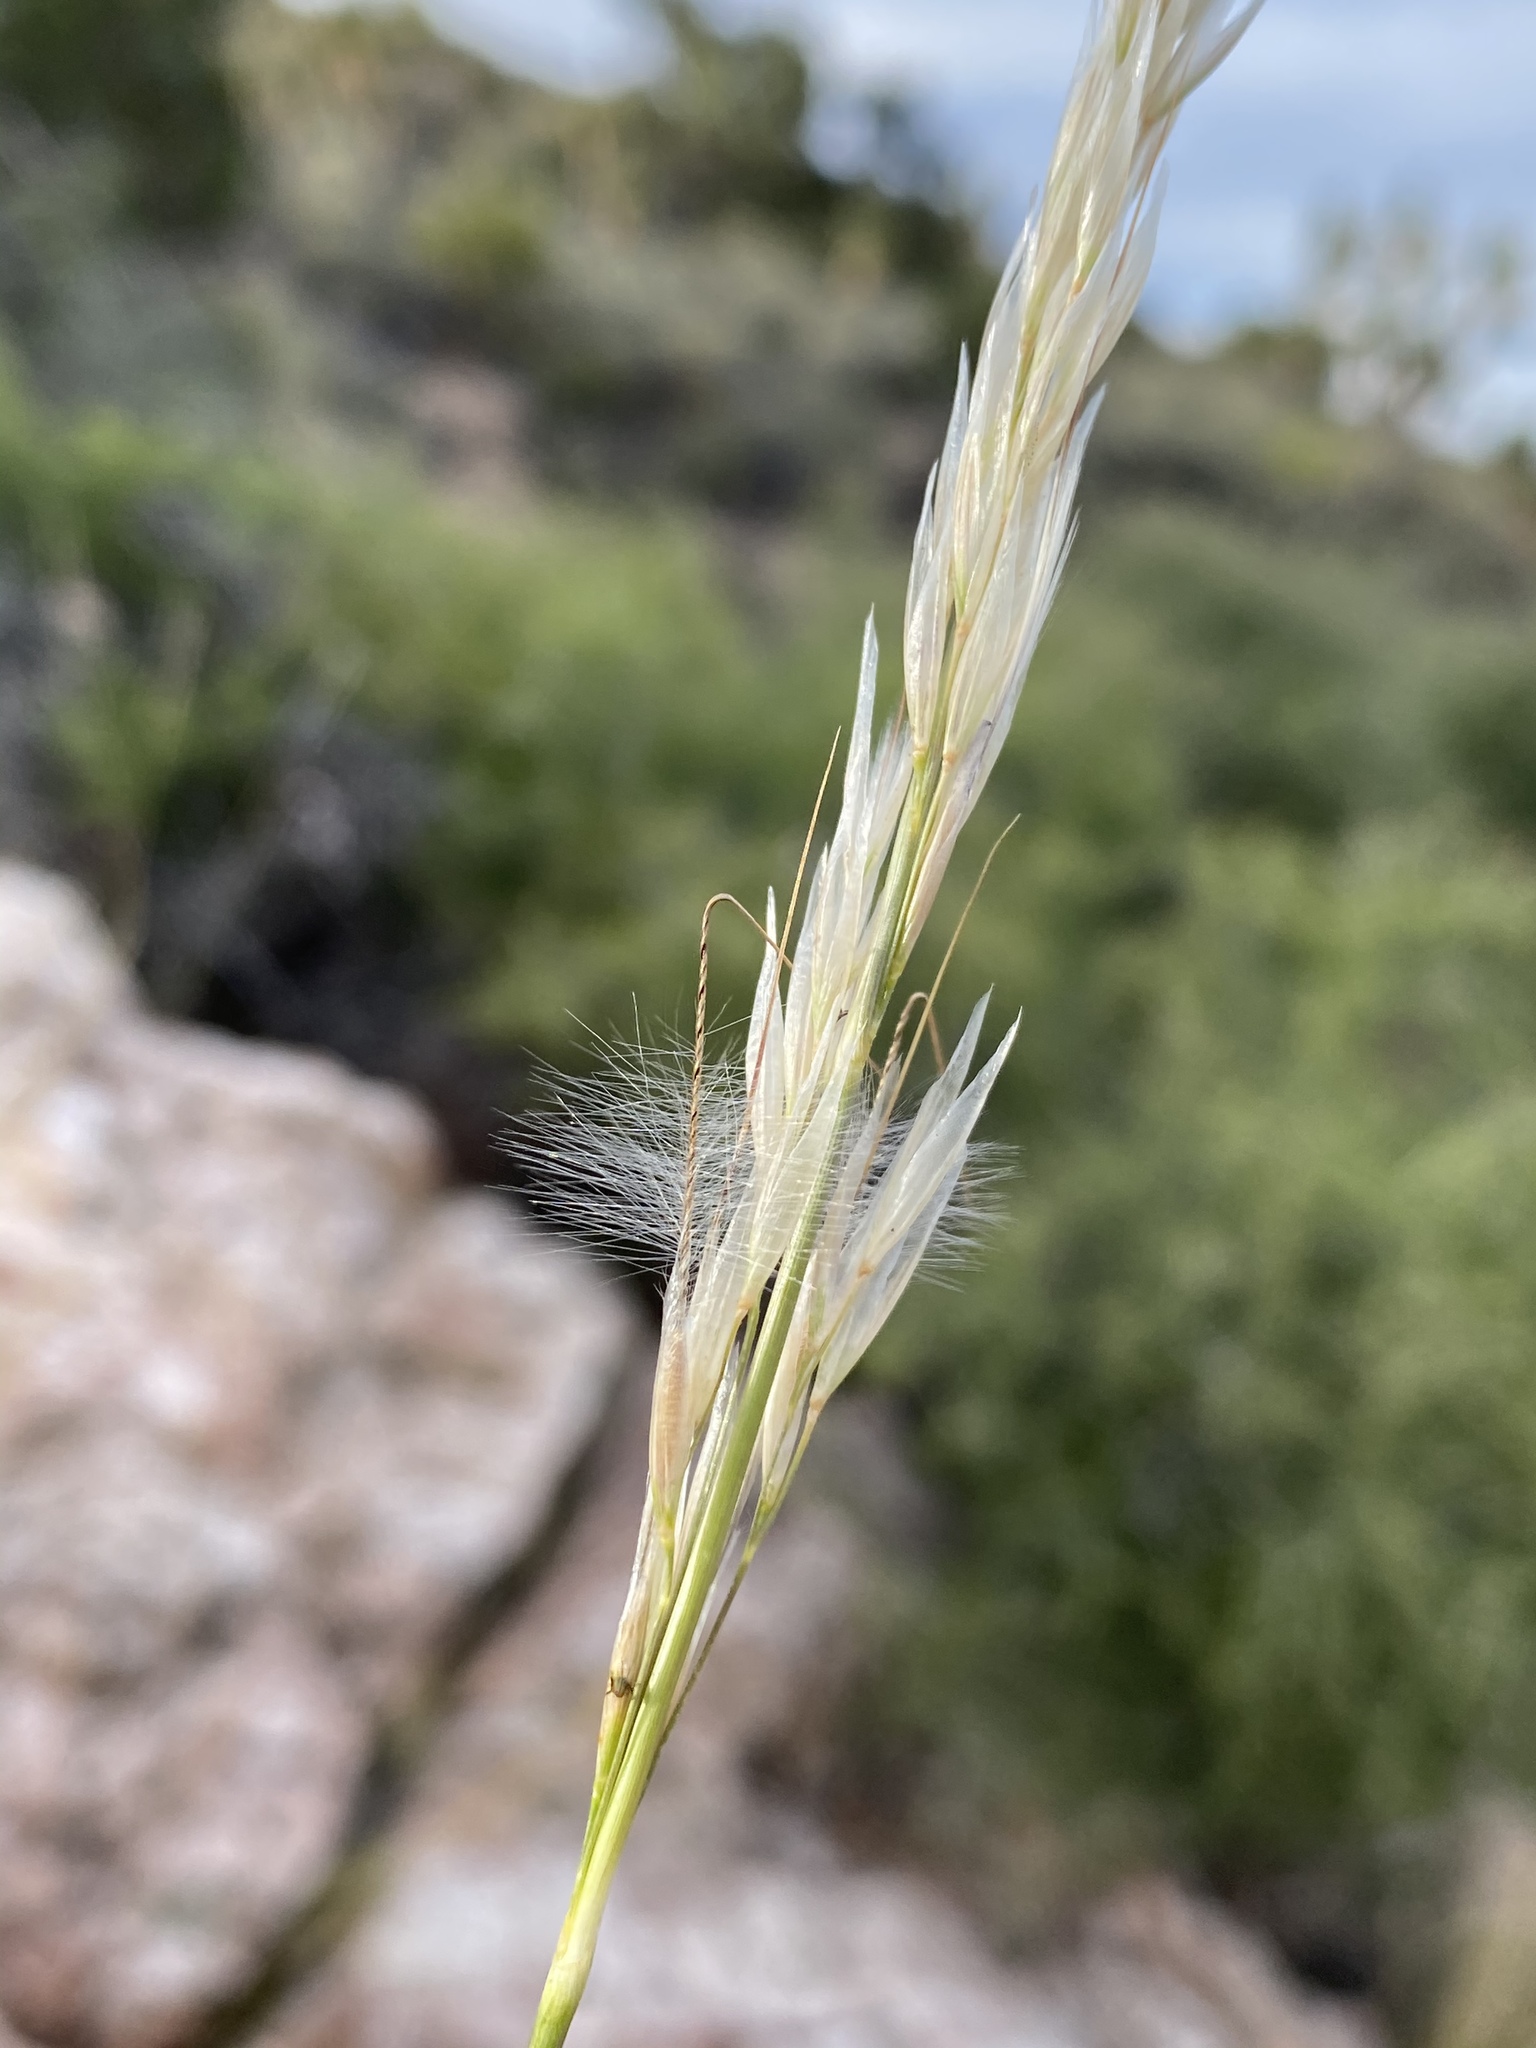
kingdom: Plantae
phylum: Tracheophyta
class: Liliopsida
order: Poales
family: Poaceae
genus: Pappostipa
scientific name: Pappostipa speciosa
